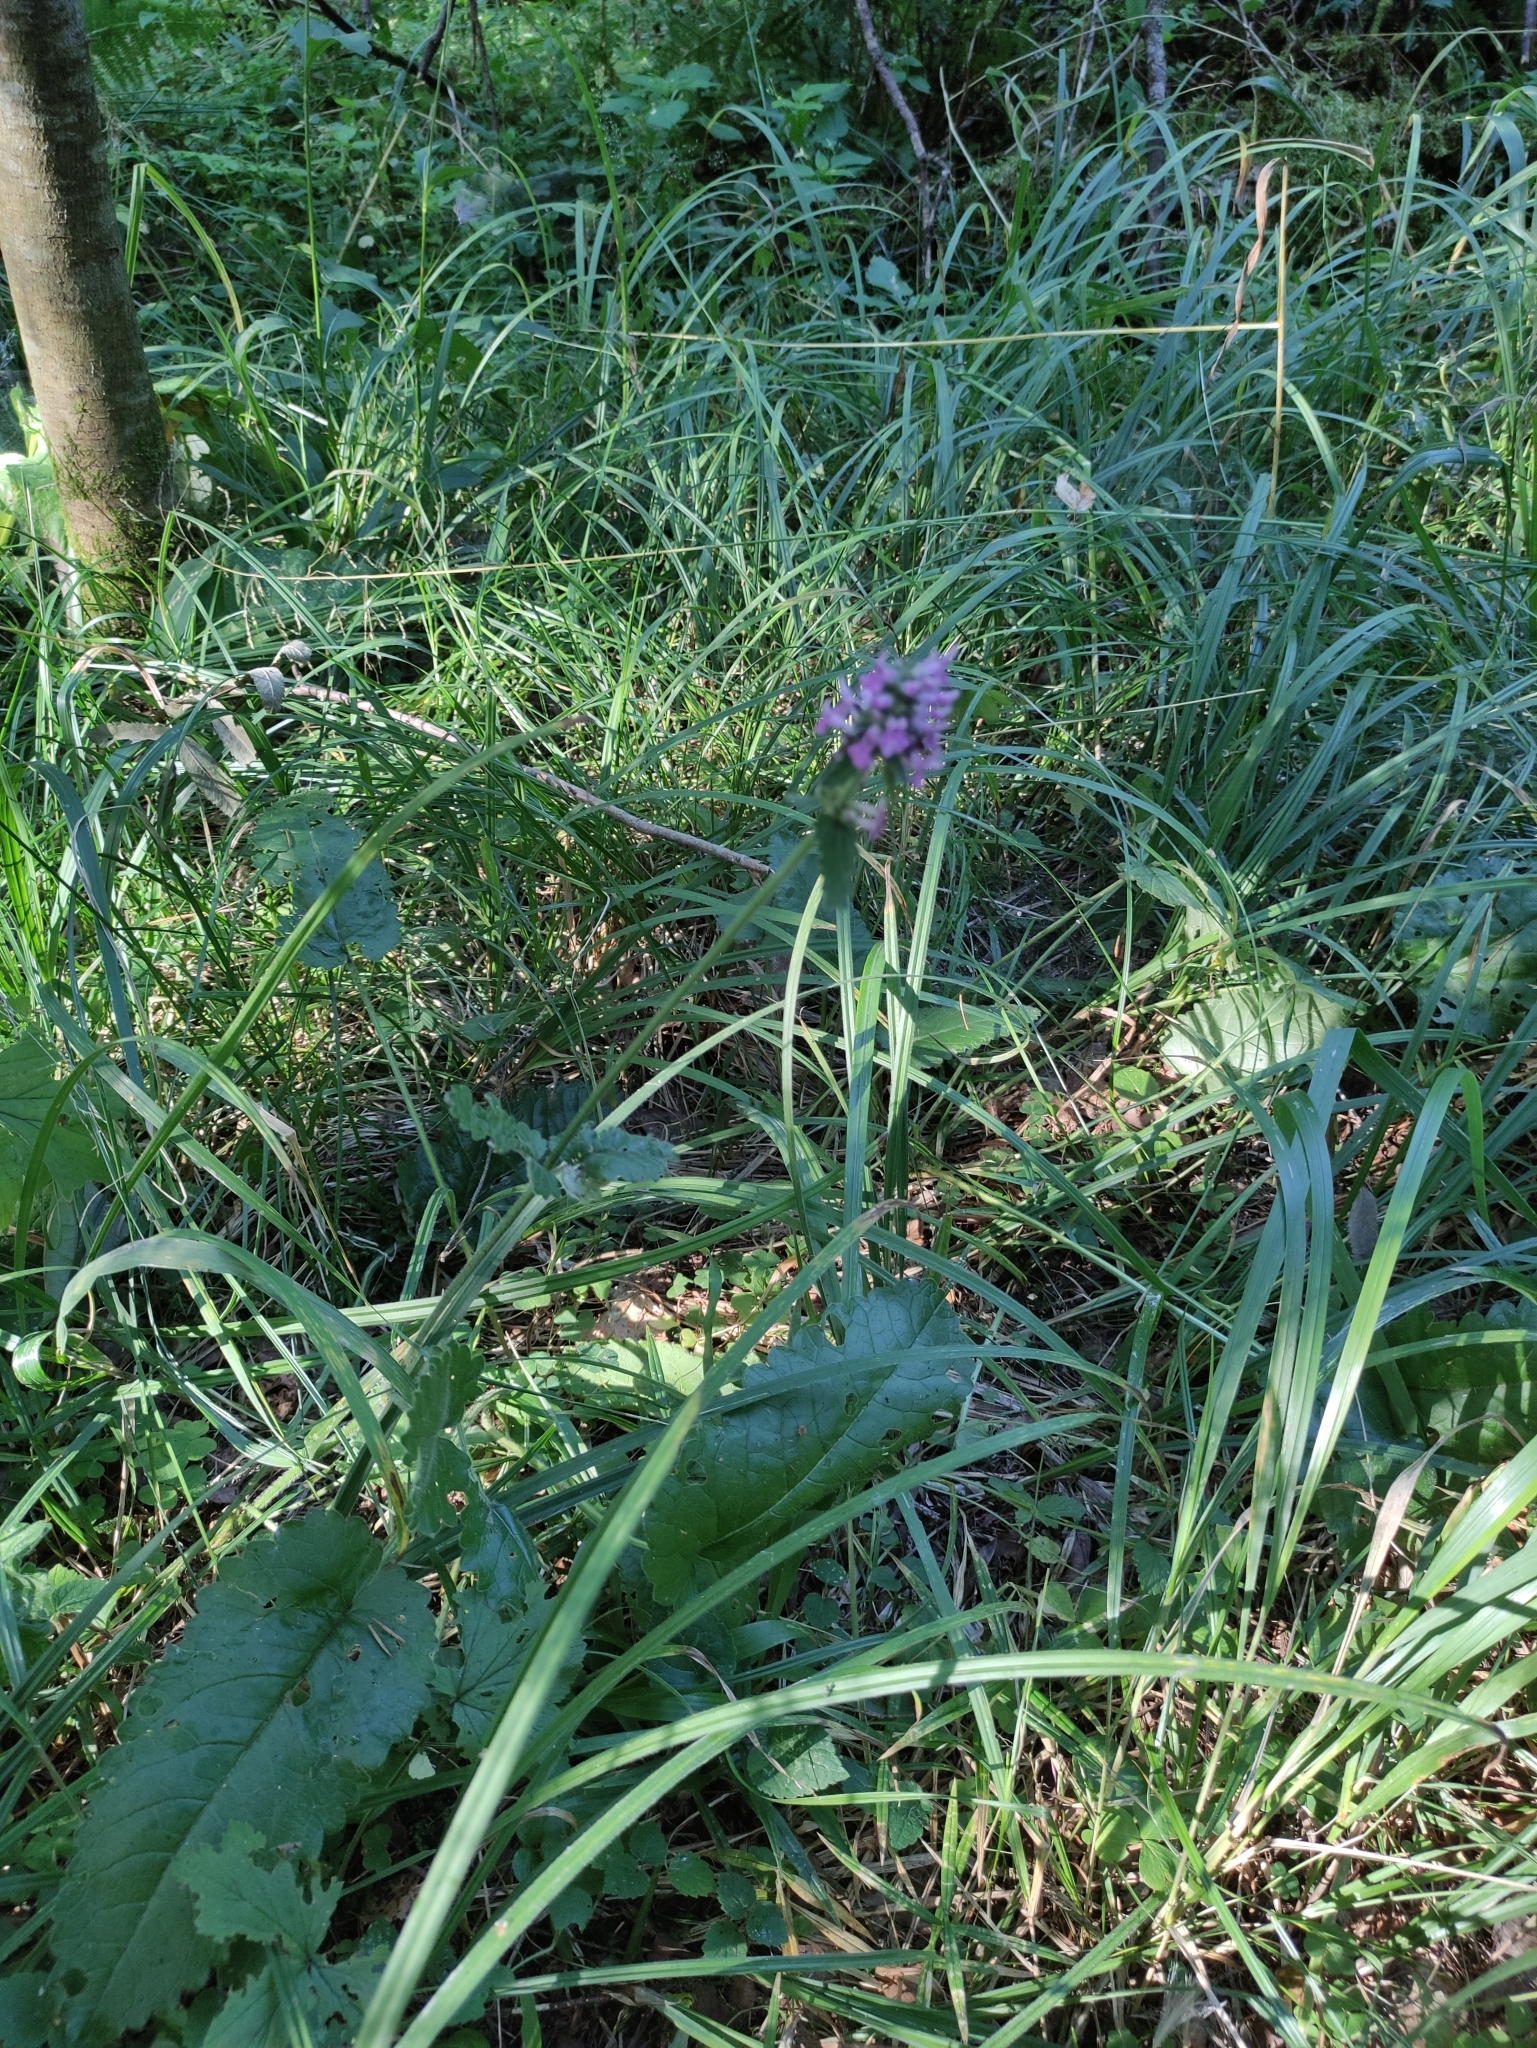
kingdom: Plantae
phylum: Tracheophyta
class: Magnoliopsida
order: Lamiales
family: Lamiaceae
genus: Betonica
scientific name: Betonica officinalis
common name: Bishop's-wort
